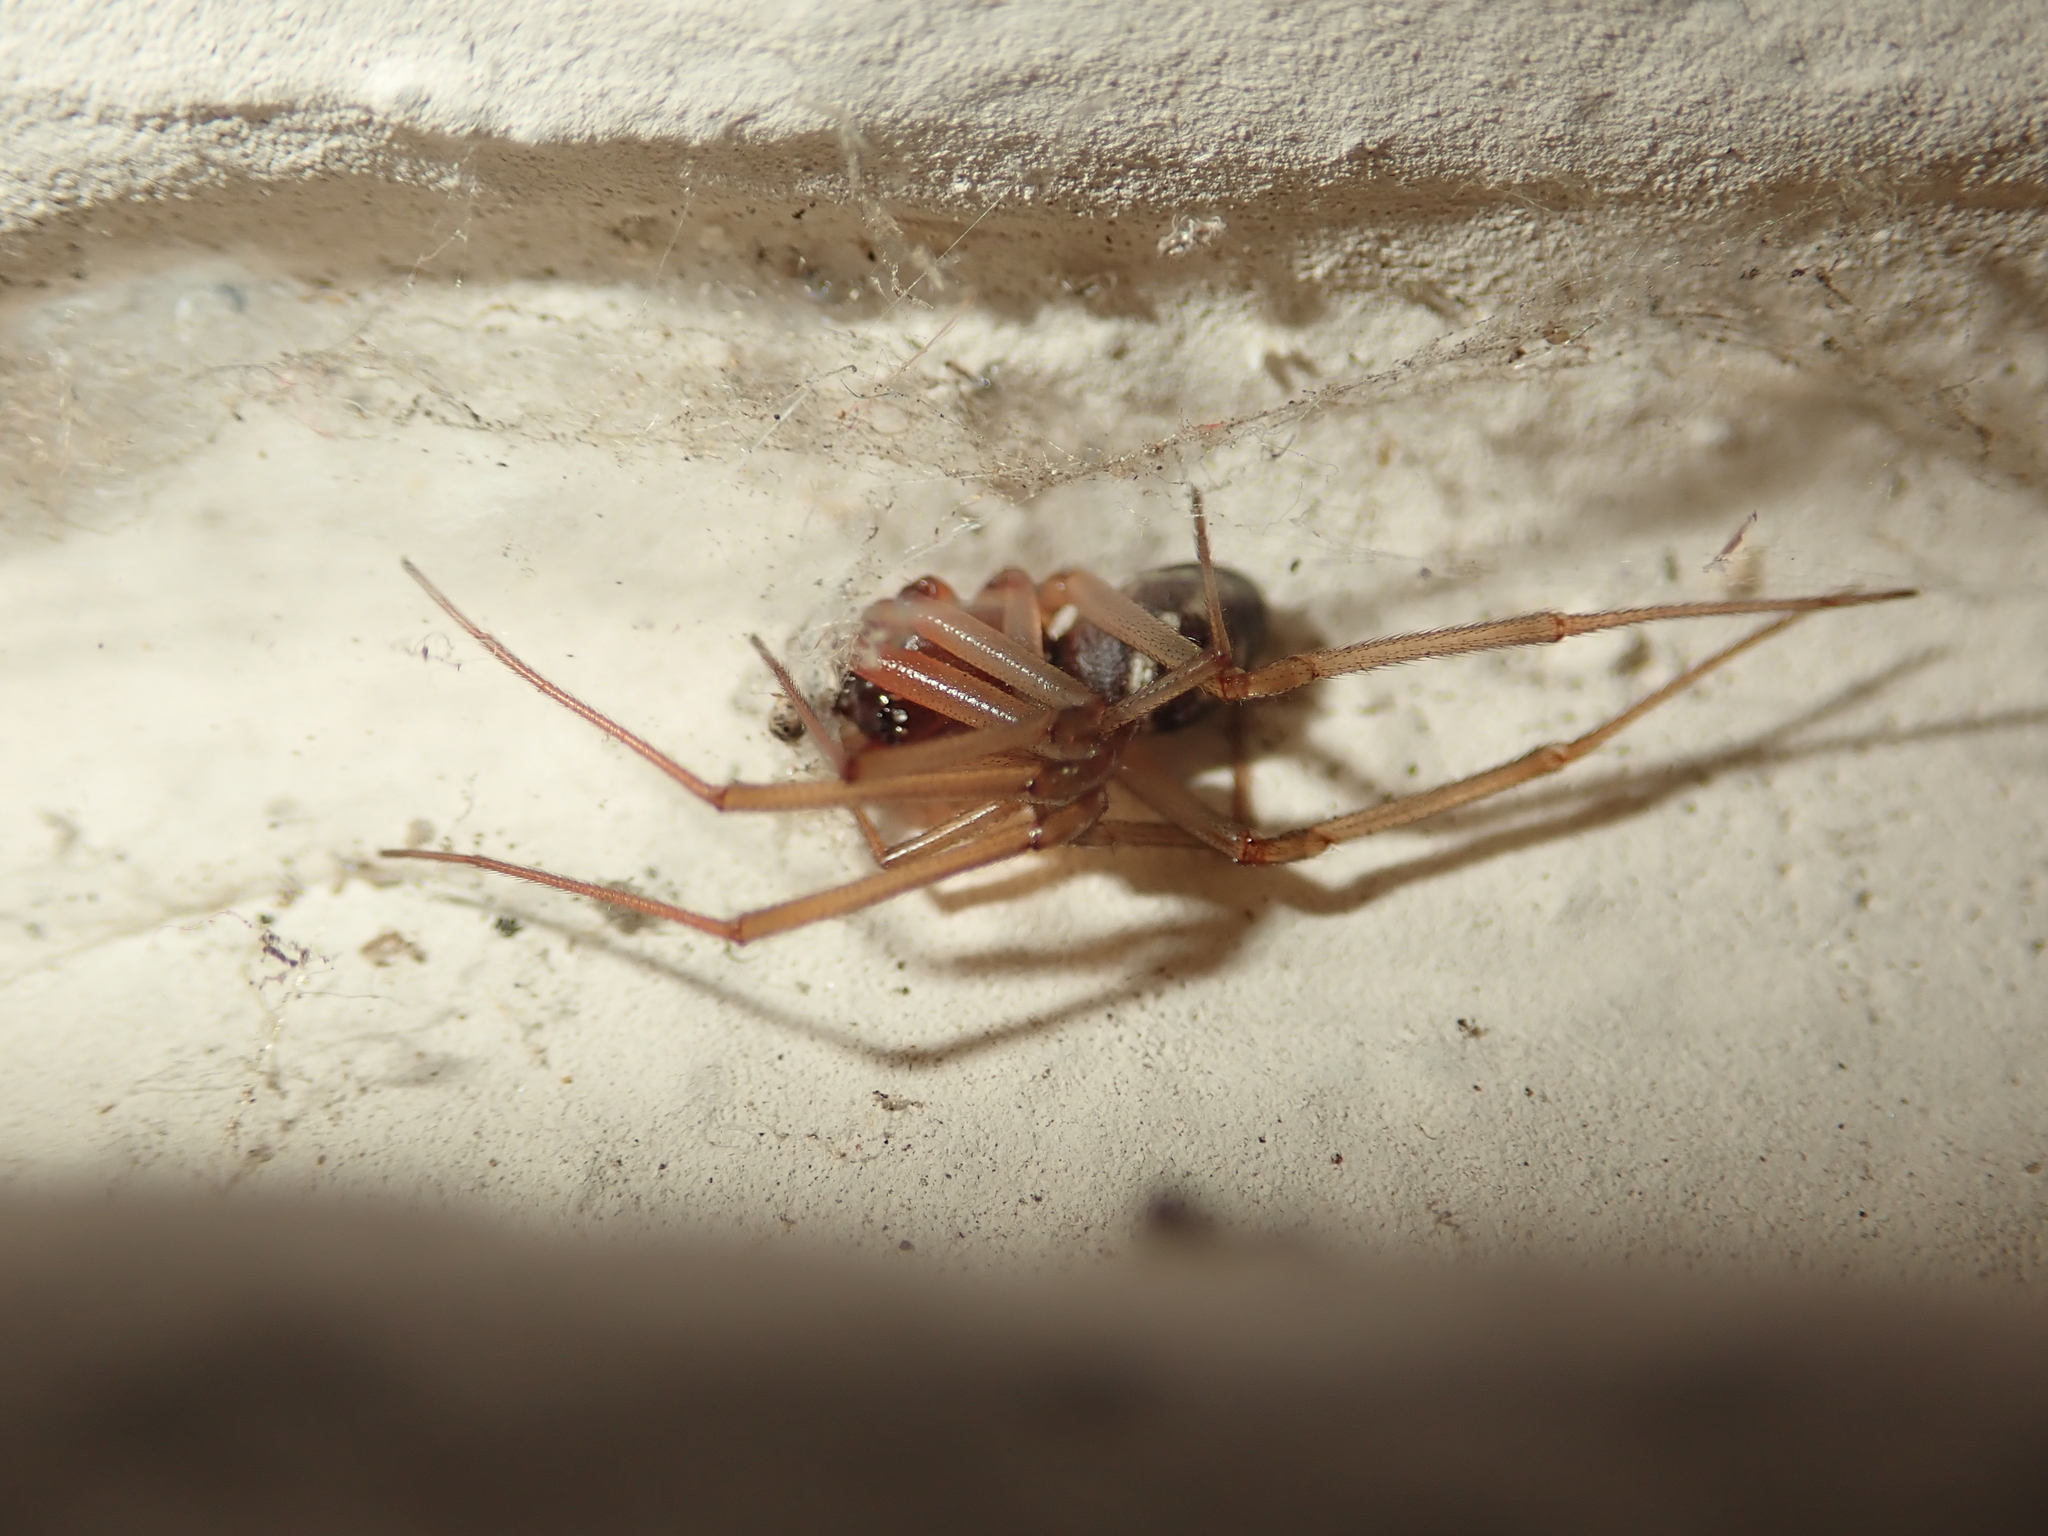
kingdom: Animalia
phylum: Arthropoda
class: Arachnida
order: Araneae
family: Theridiidae
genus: Steatoda
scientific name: Steatoda grossa
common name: False black widow
